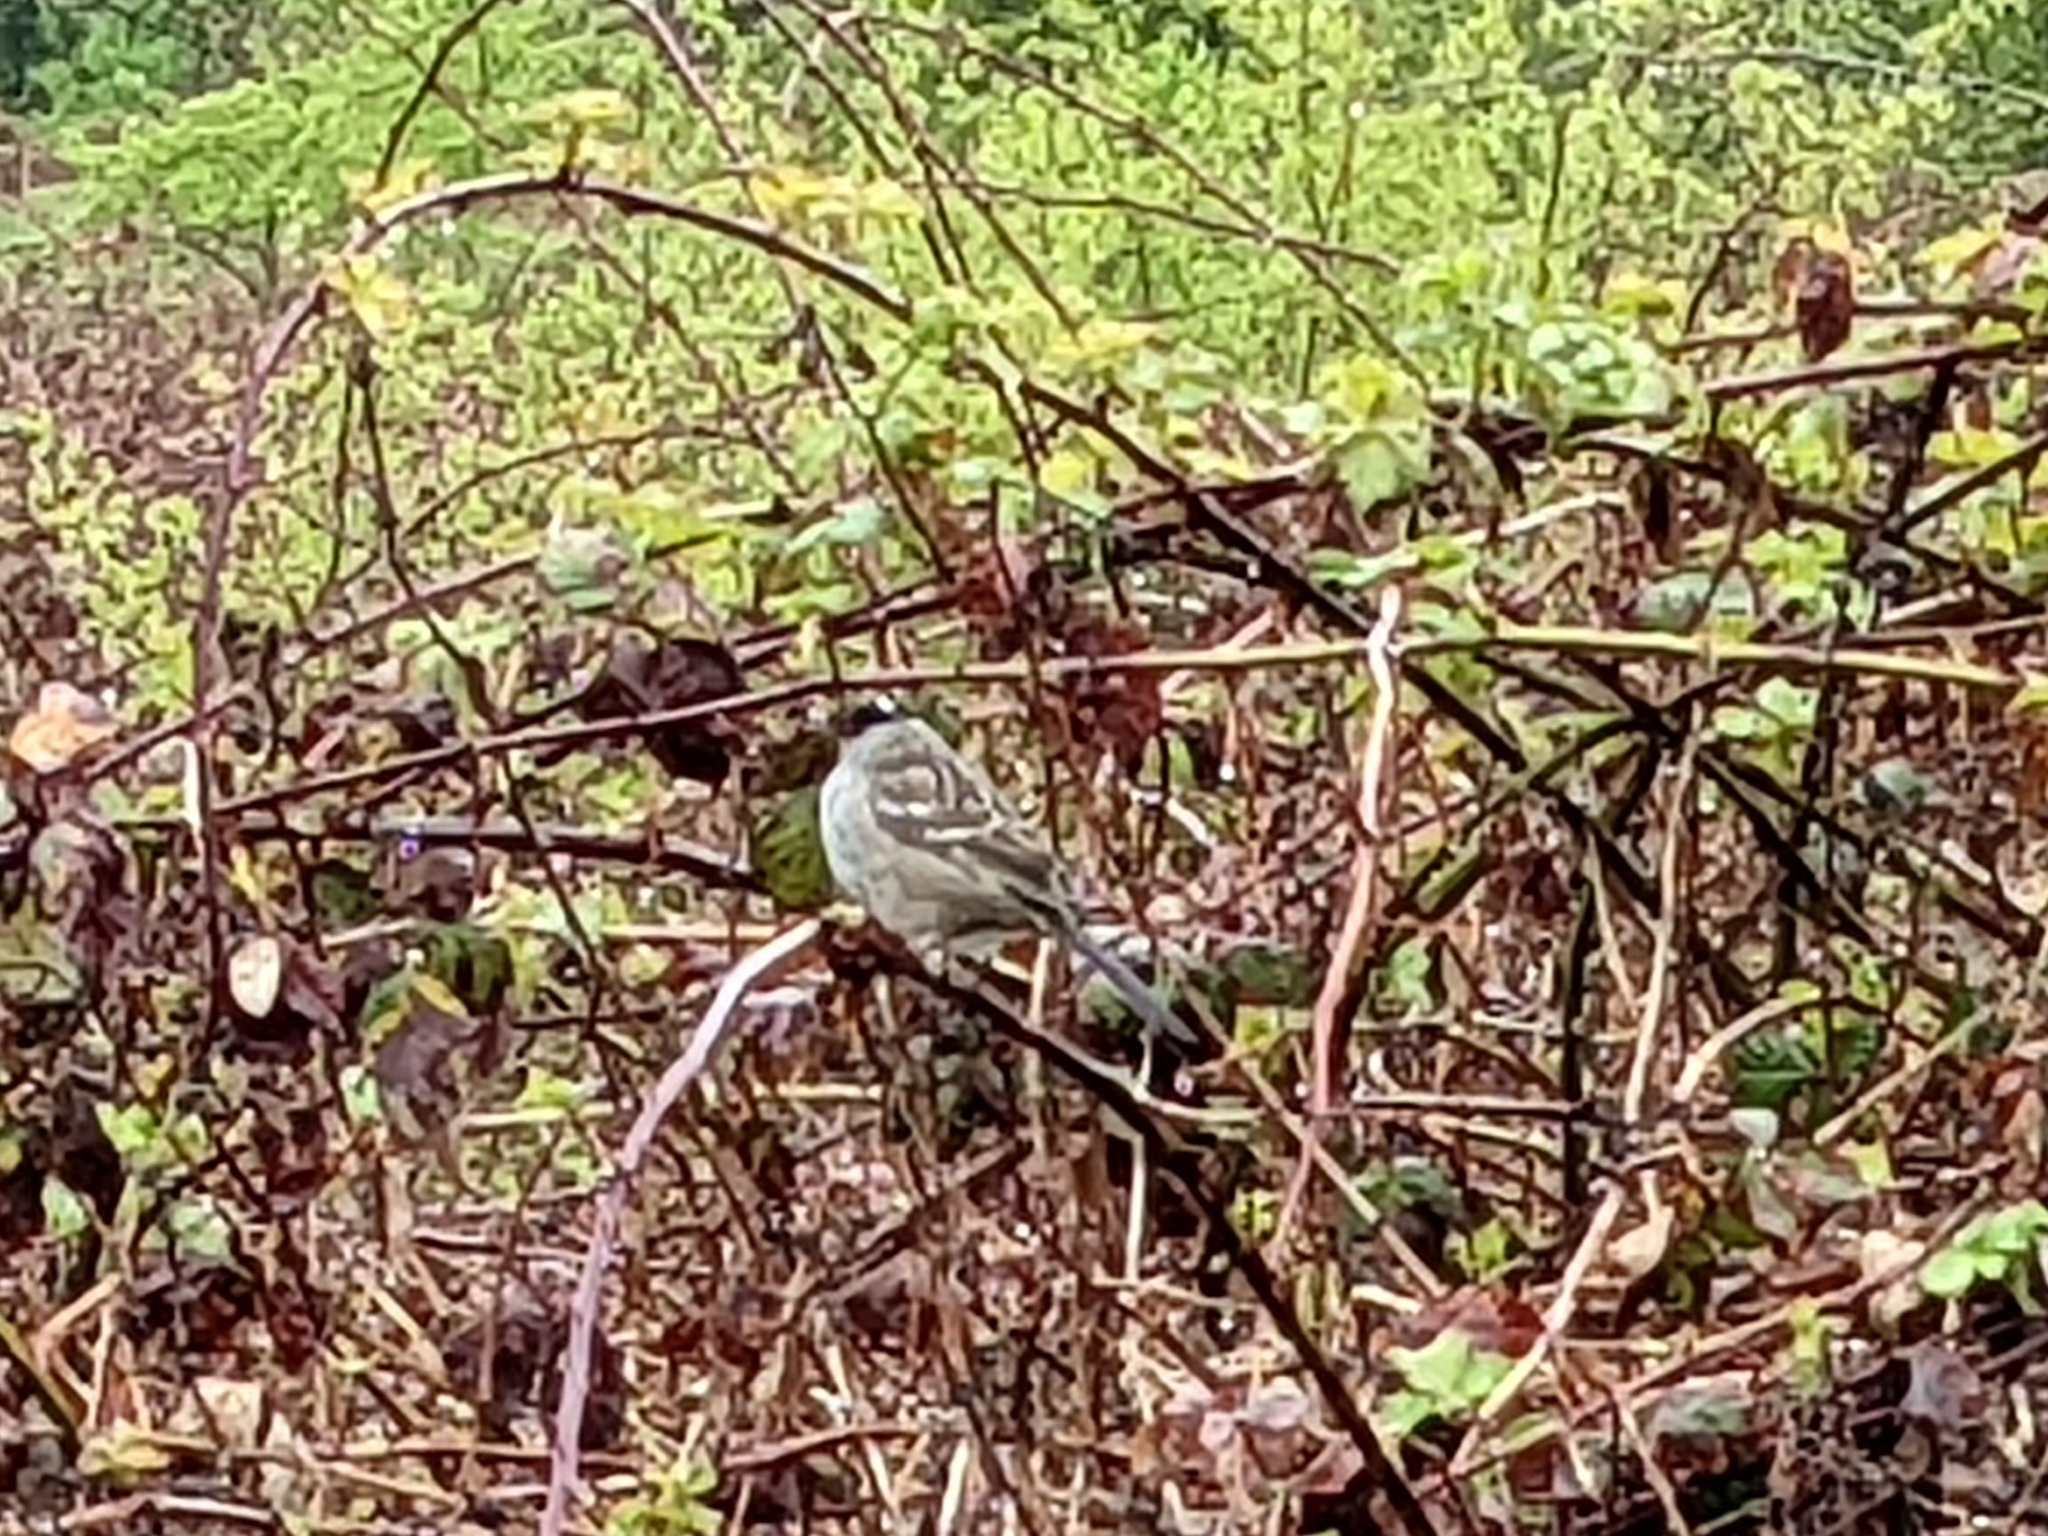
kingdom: Animalia
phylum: Chordata
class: Aves
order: Passeriformes
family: Passerellidae
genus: Zonotrichia
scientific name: Zonotrichia atricapilla
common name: Golden-crowned sparrow
